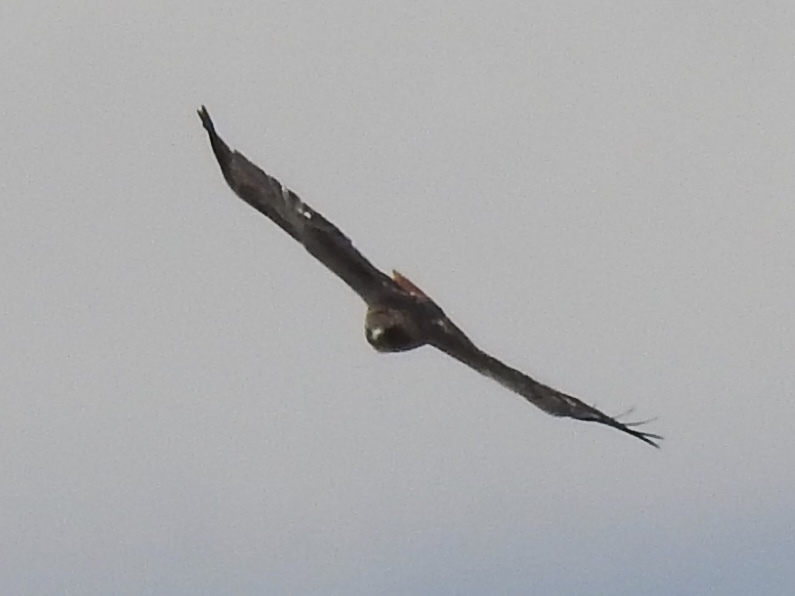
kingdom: Animalia
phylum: Chordata
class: Aves
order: Accipitriformes
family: Accipitridae
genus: Buteo
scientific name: Buteo jamaicensis
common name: Red-tailed hawk
